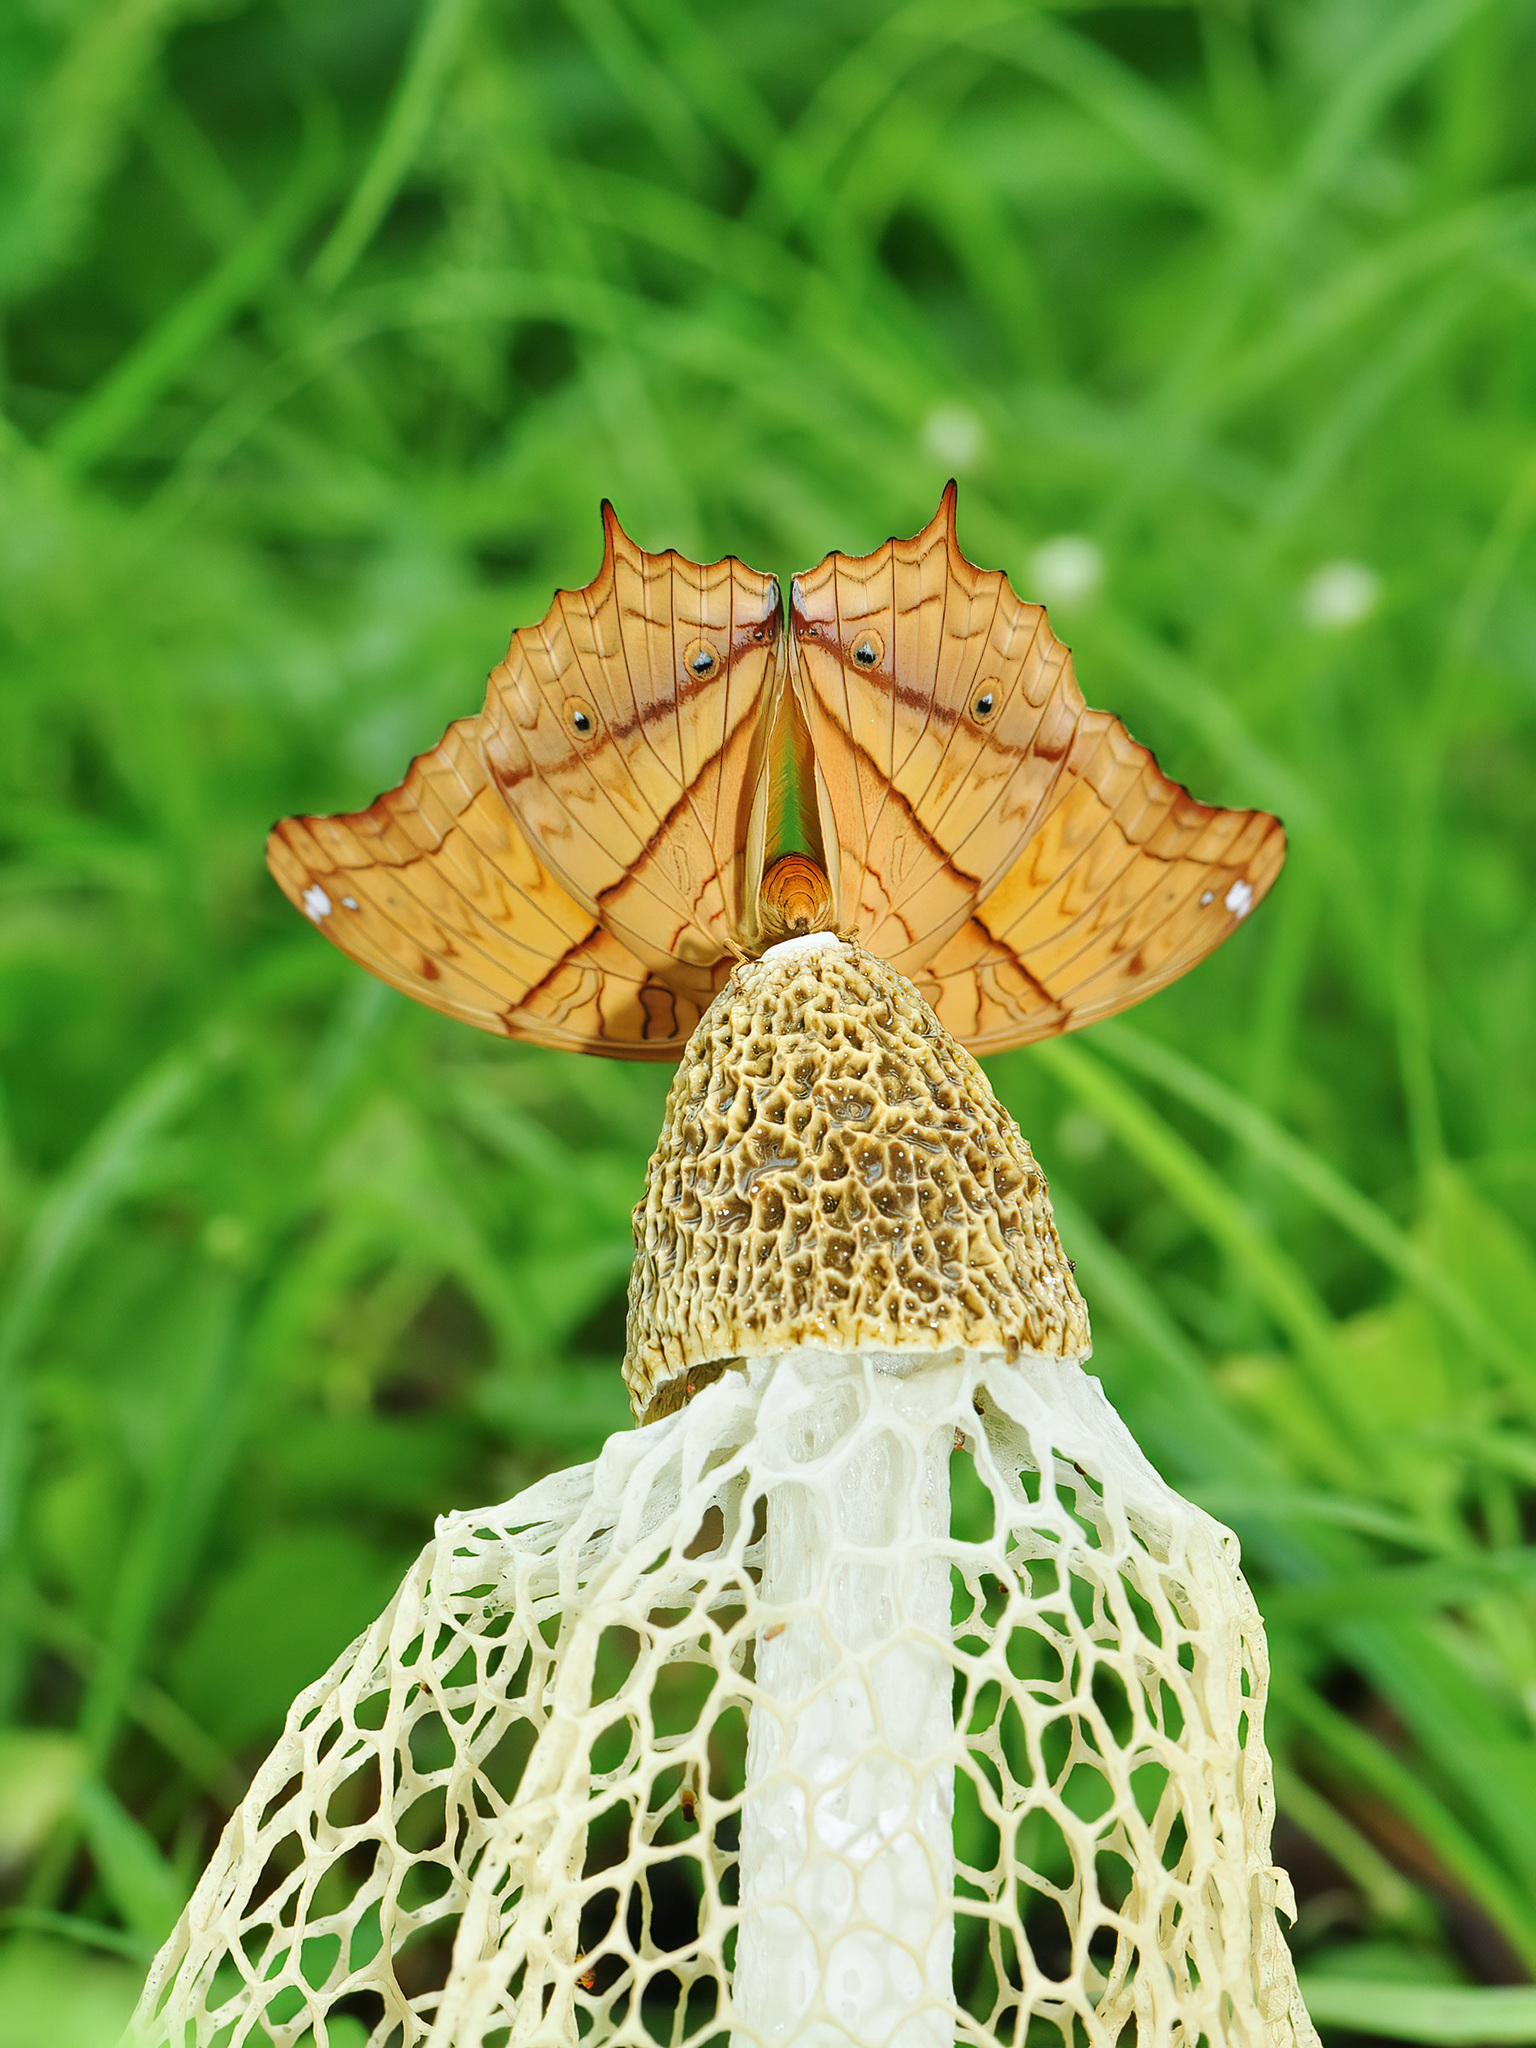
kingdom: Animalia
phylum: Arthropoda
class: Insecta
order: Lepidoptera
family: Nymphalidae
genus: Vindula
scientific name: Vindula deione
